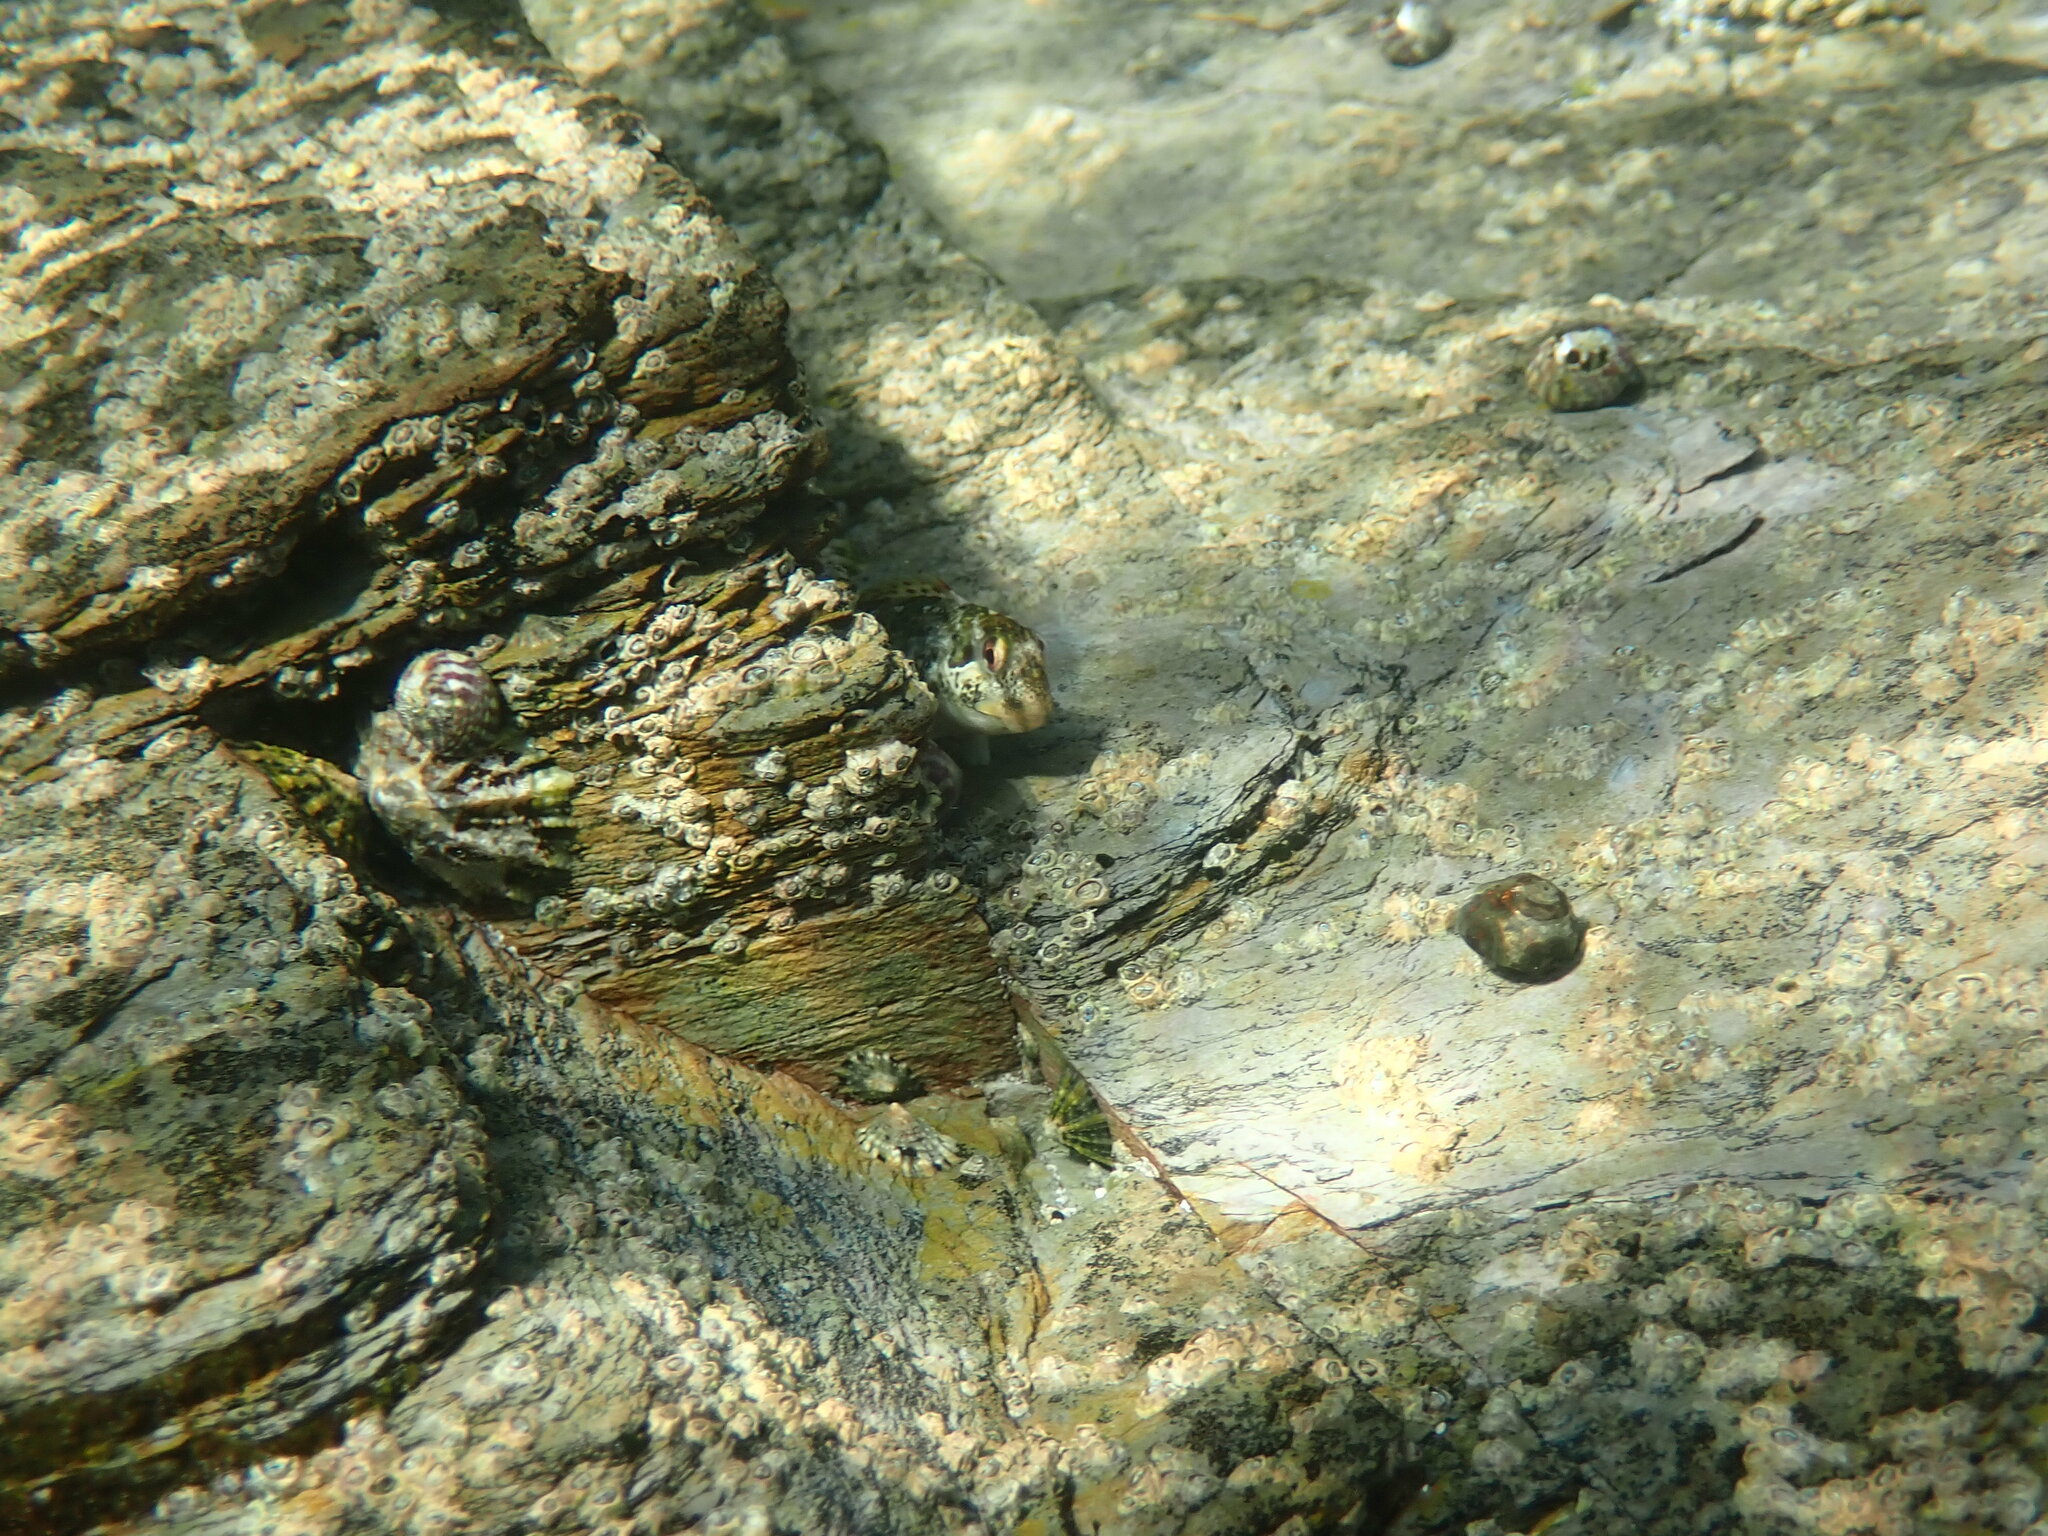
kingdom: Animalia
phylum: Chordata
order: Perciformes
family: Blenniidae
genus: Lipophrys
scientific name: Lipophrys pholis
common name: Shanny
